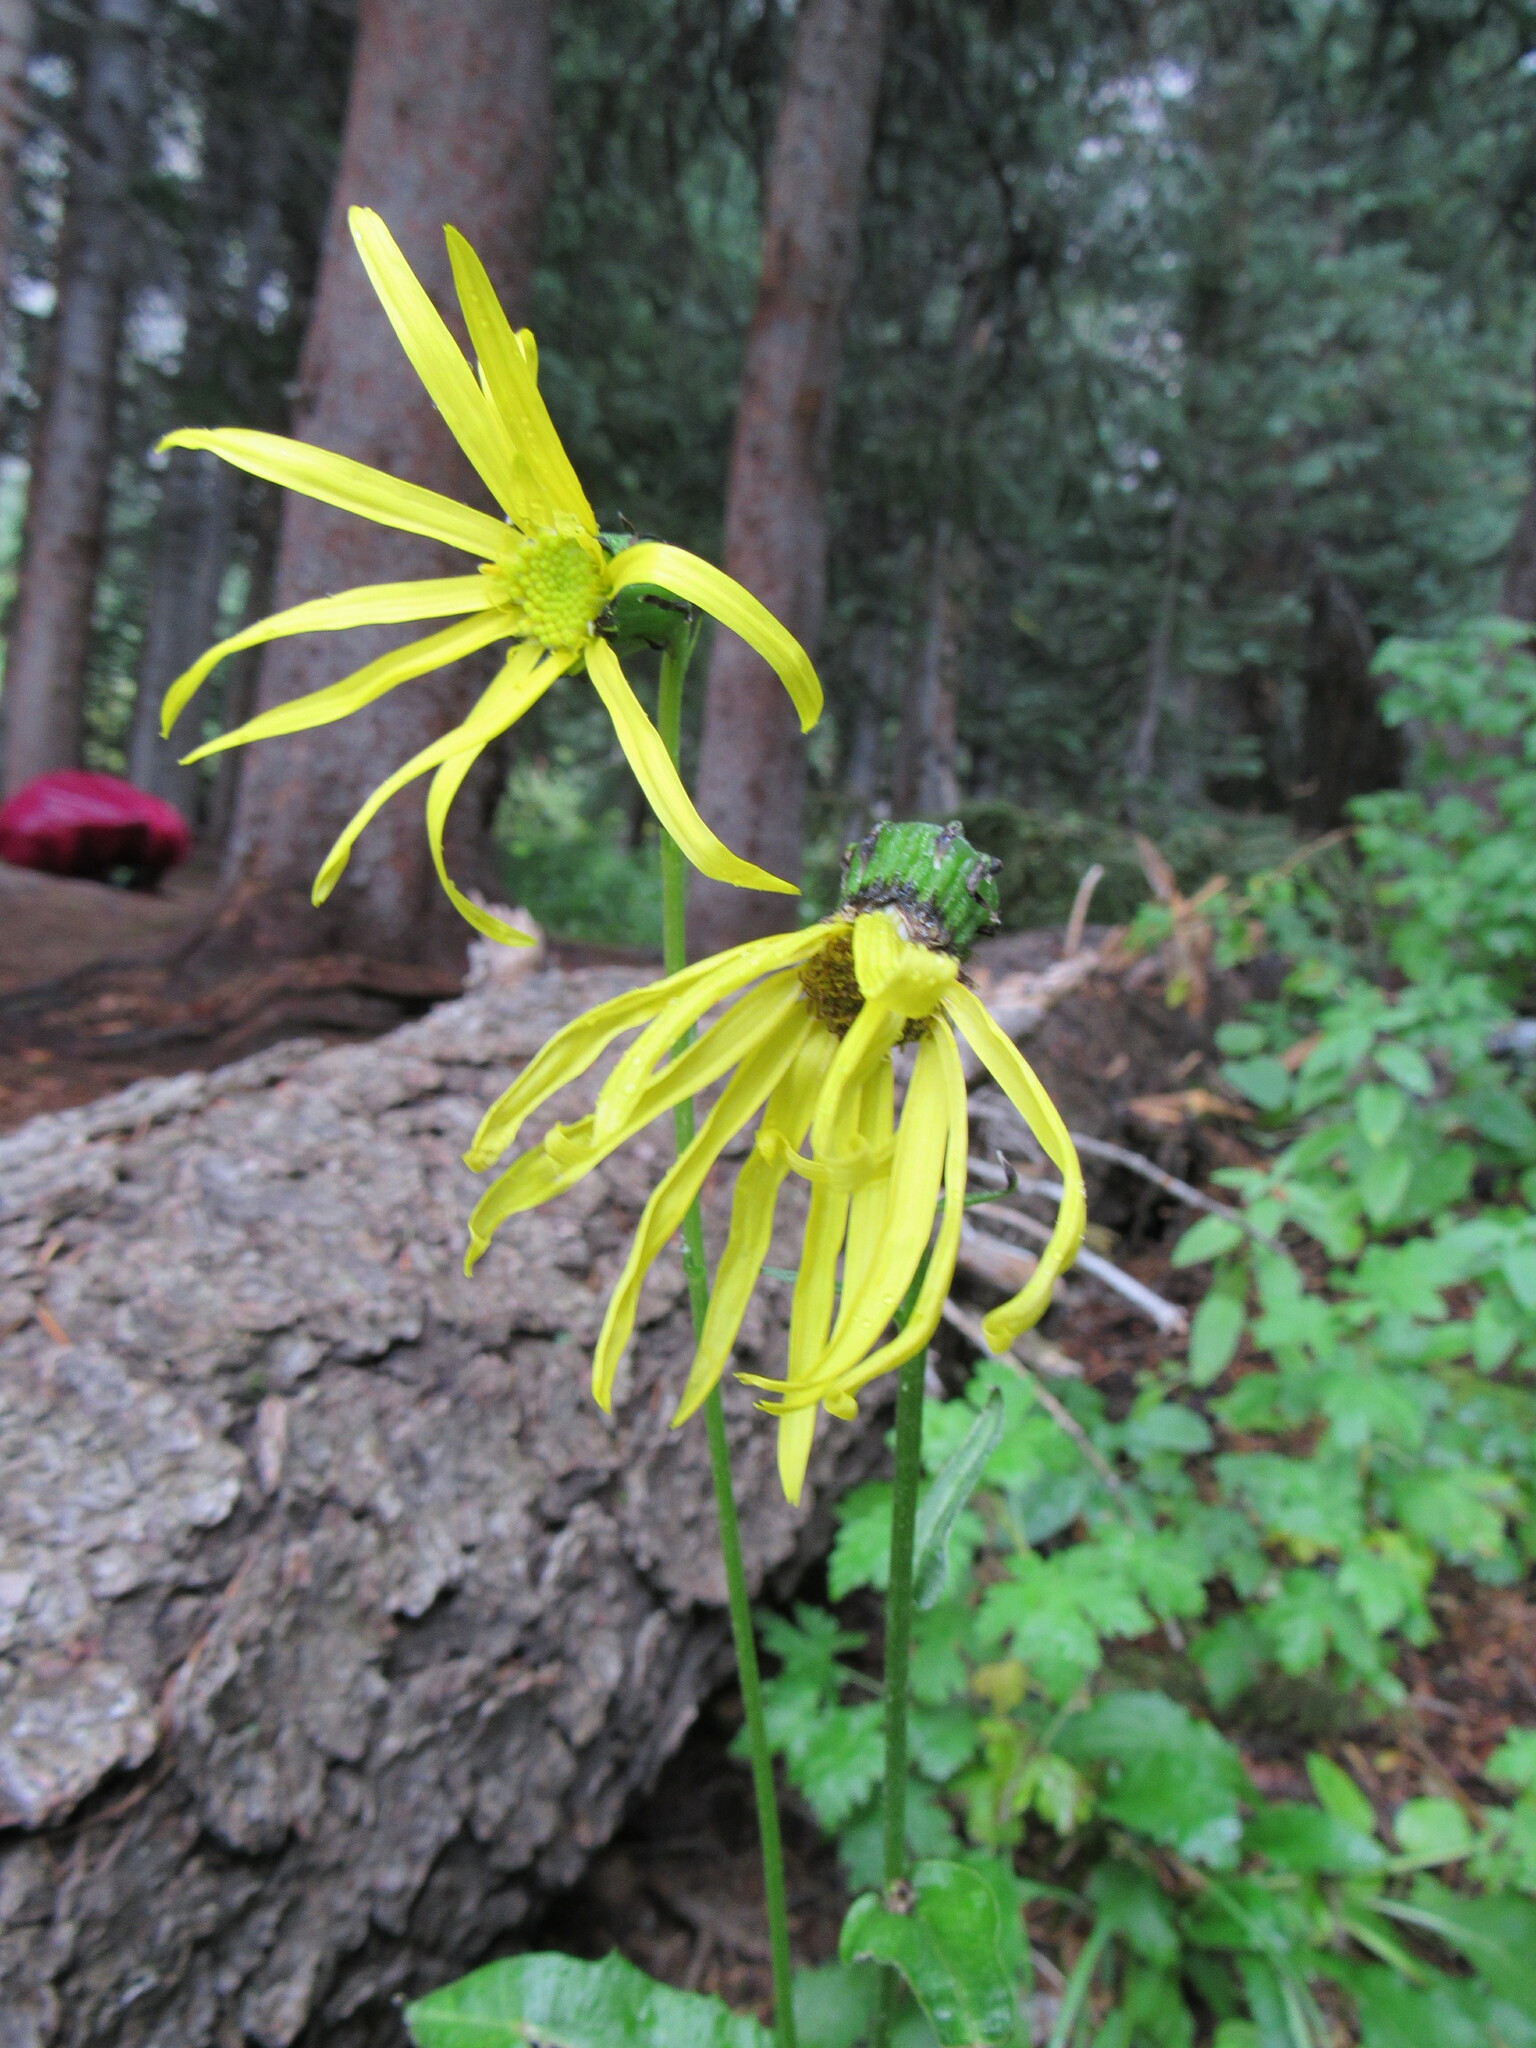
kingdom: Plantae
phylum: Tracheophyta
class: Magnoliopsida
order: Asterales
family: Asteraceae
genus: Senecio
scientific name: Senecio amplectens
